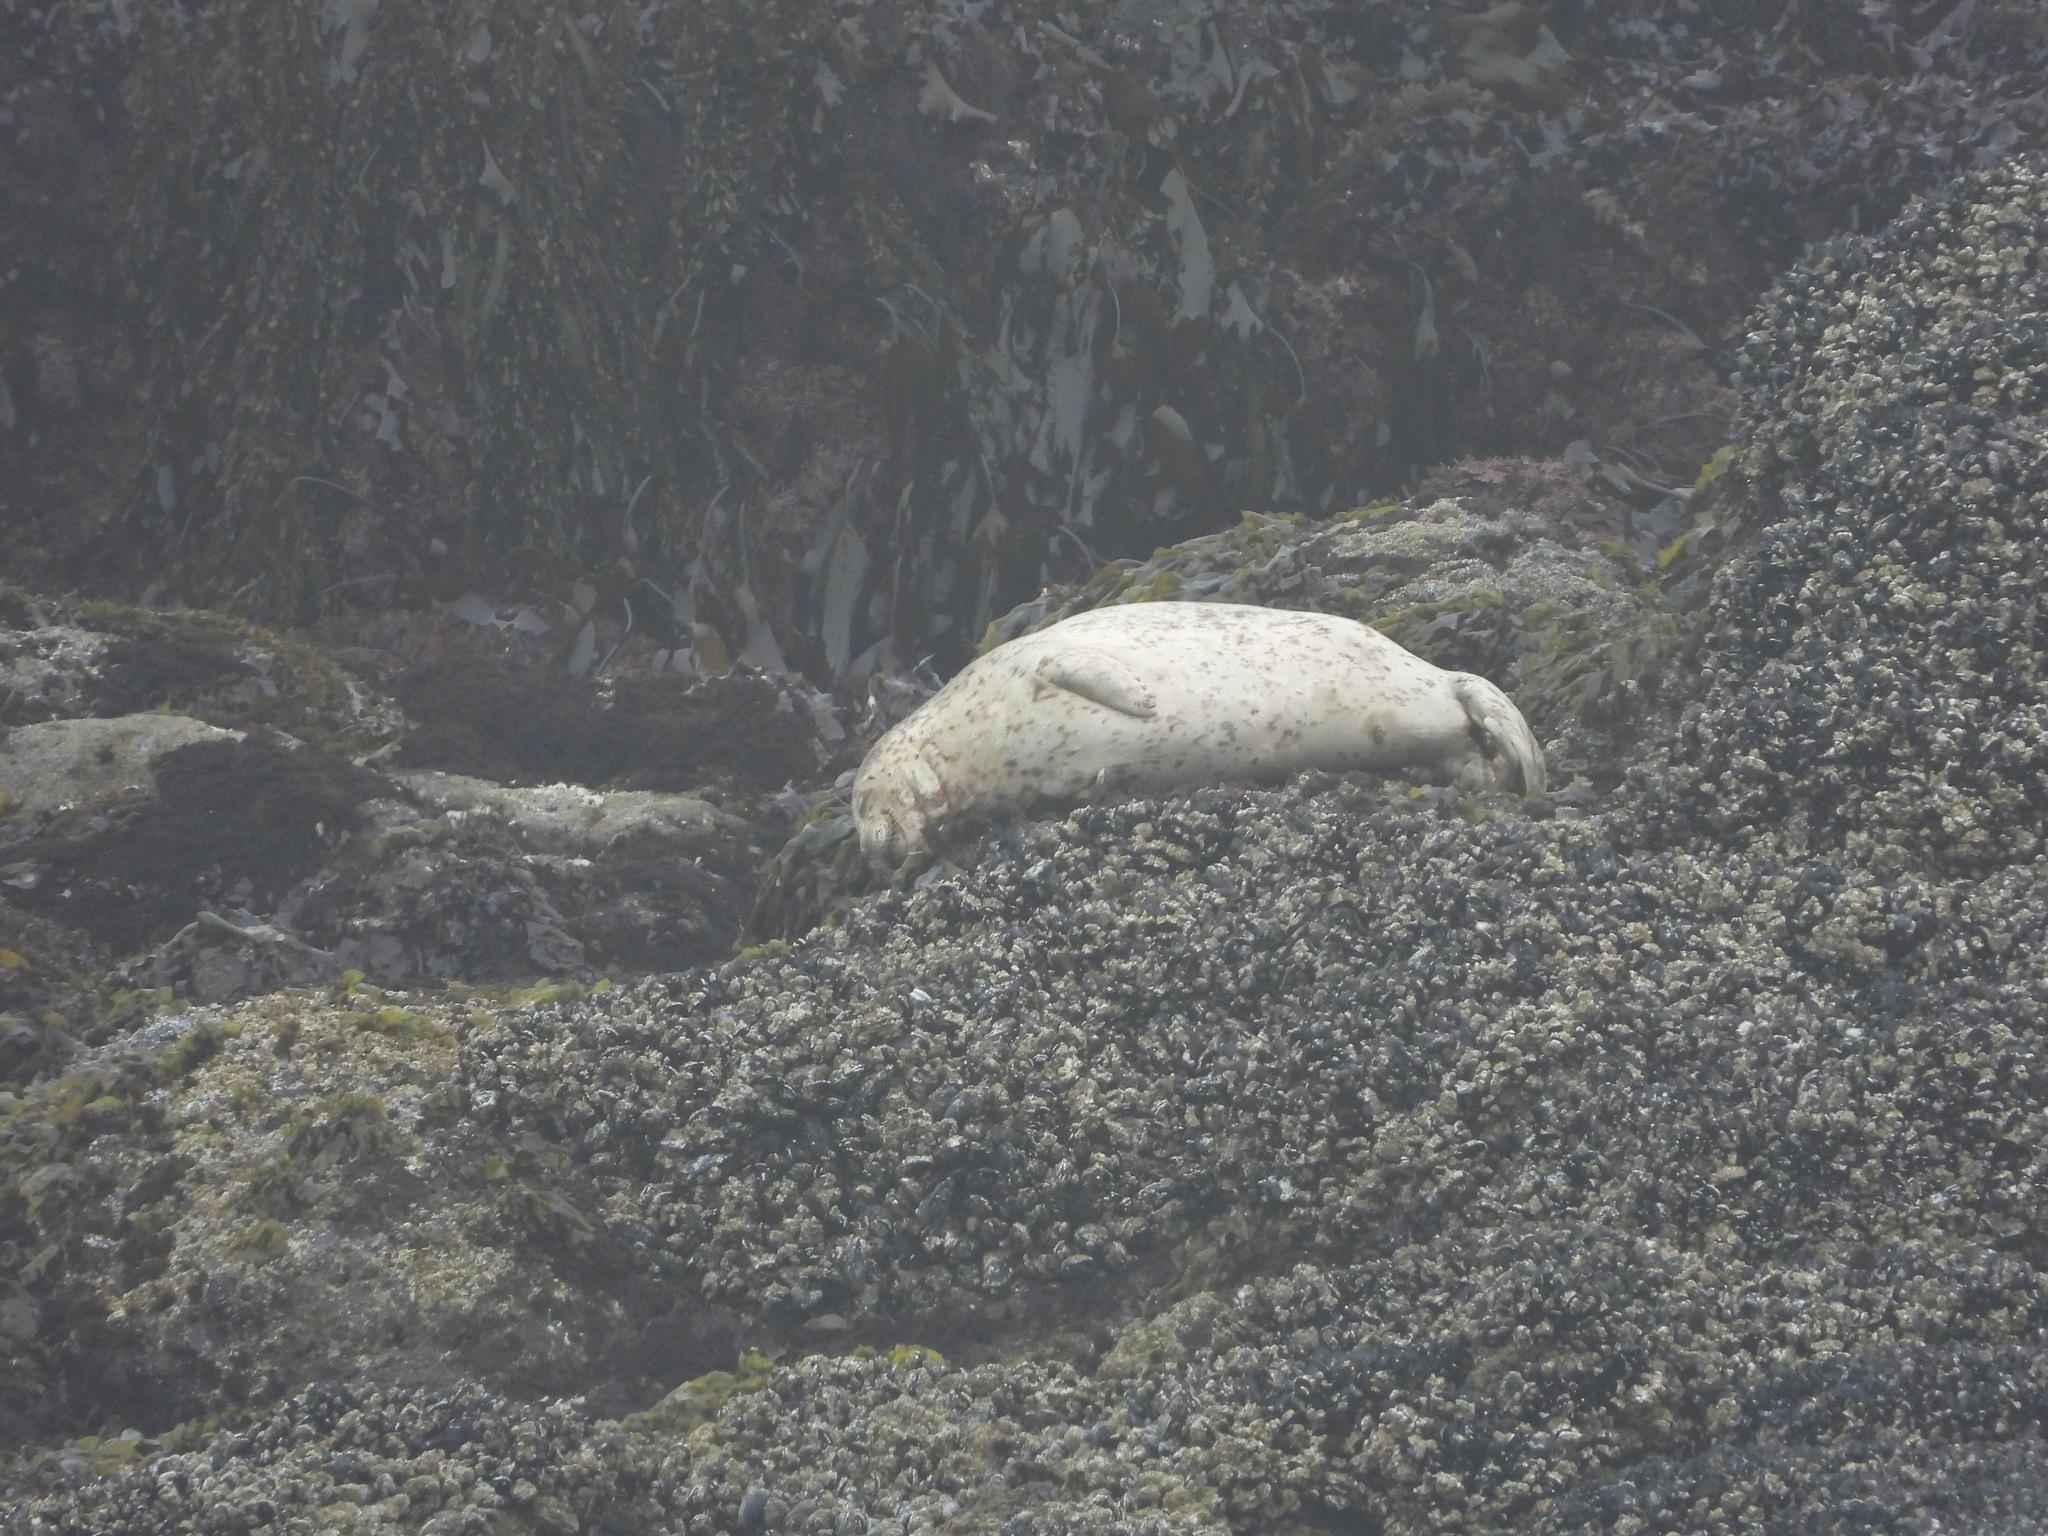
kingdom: Animalia
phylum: Chordata
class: Mammalia
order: Carnivora
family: Phocidae
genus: Phoca
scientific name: Phoca vitulina
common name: Harbor seal
